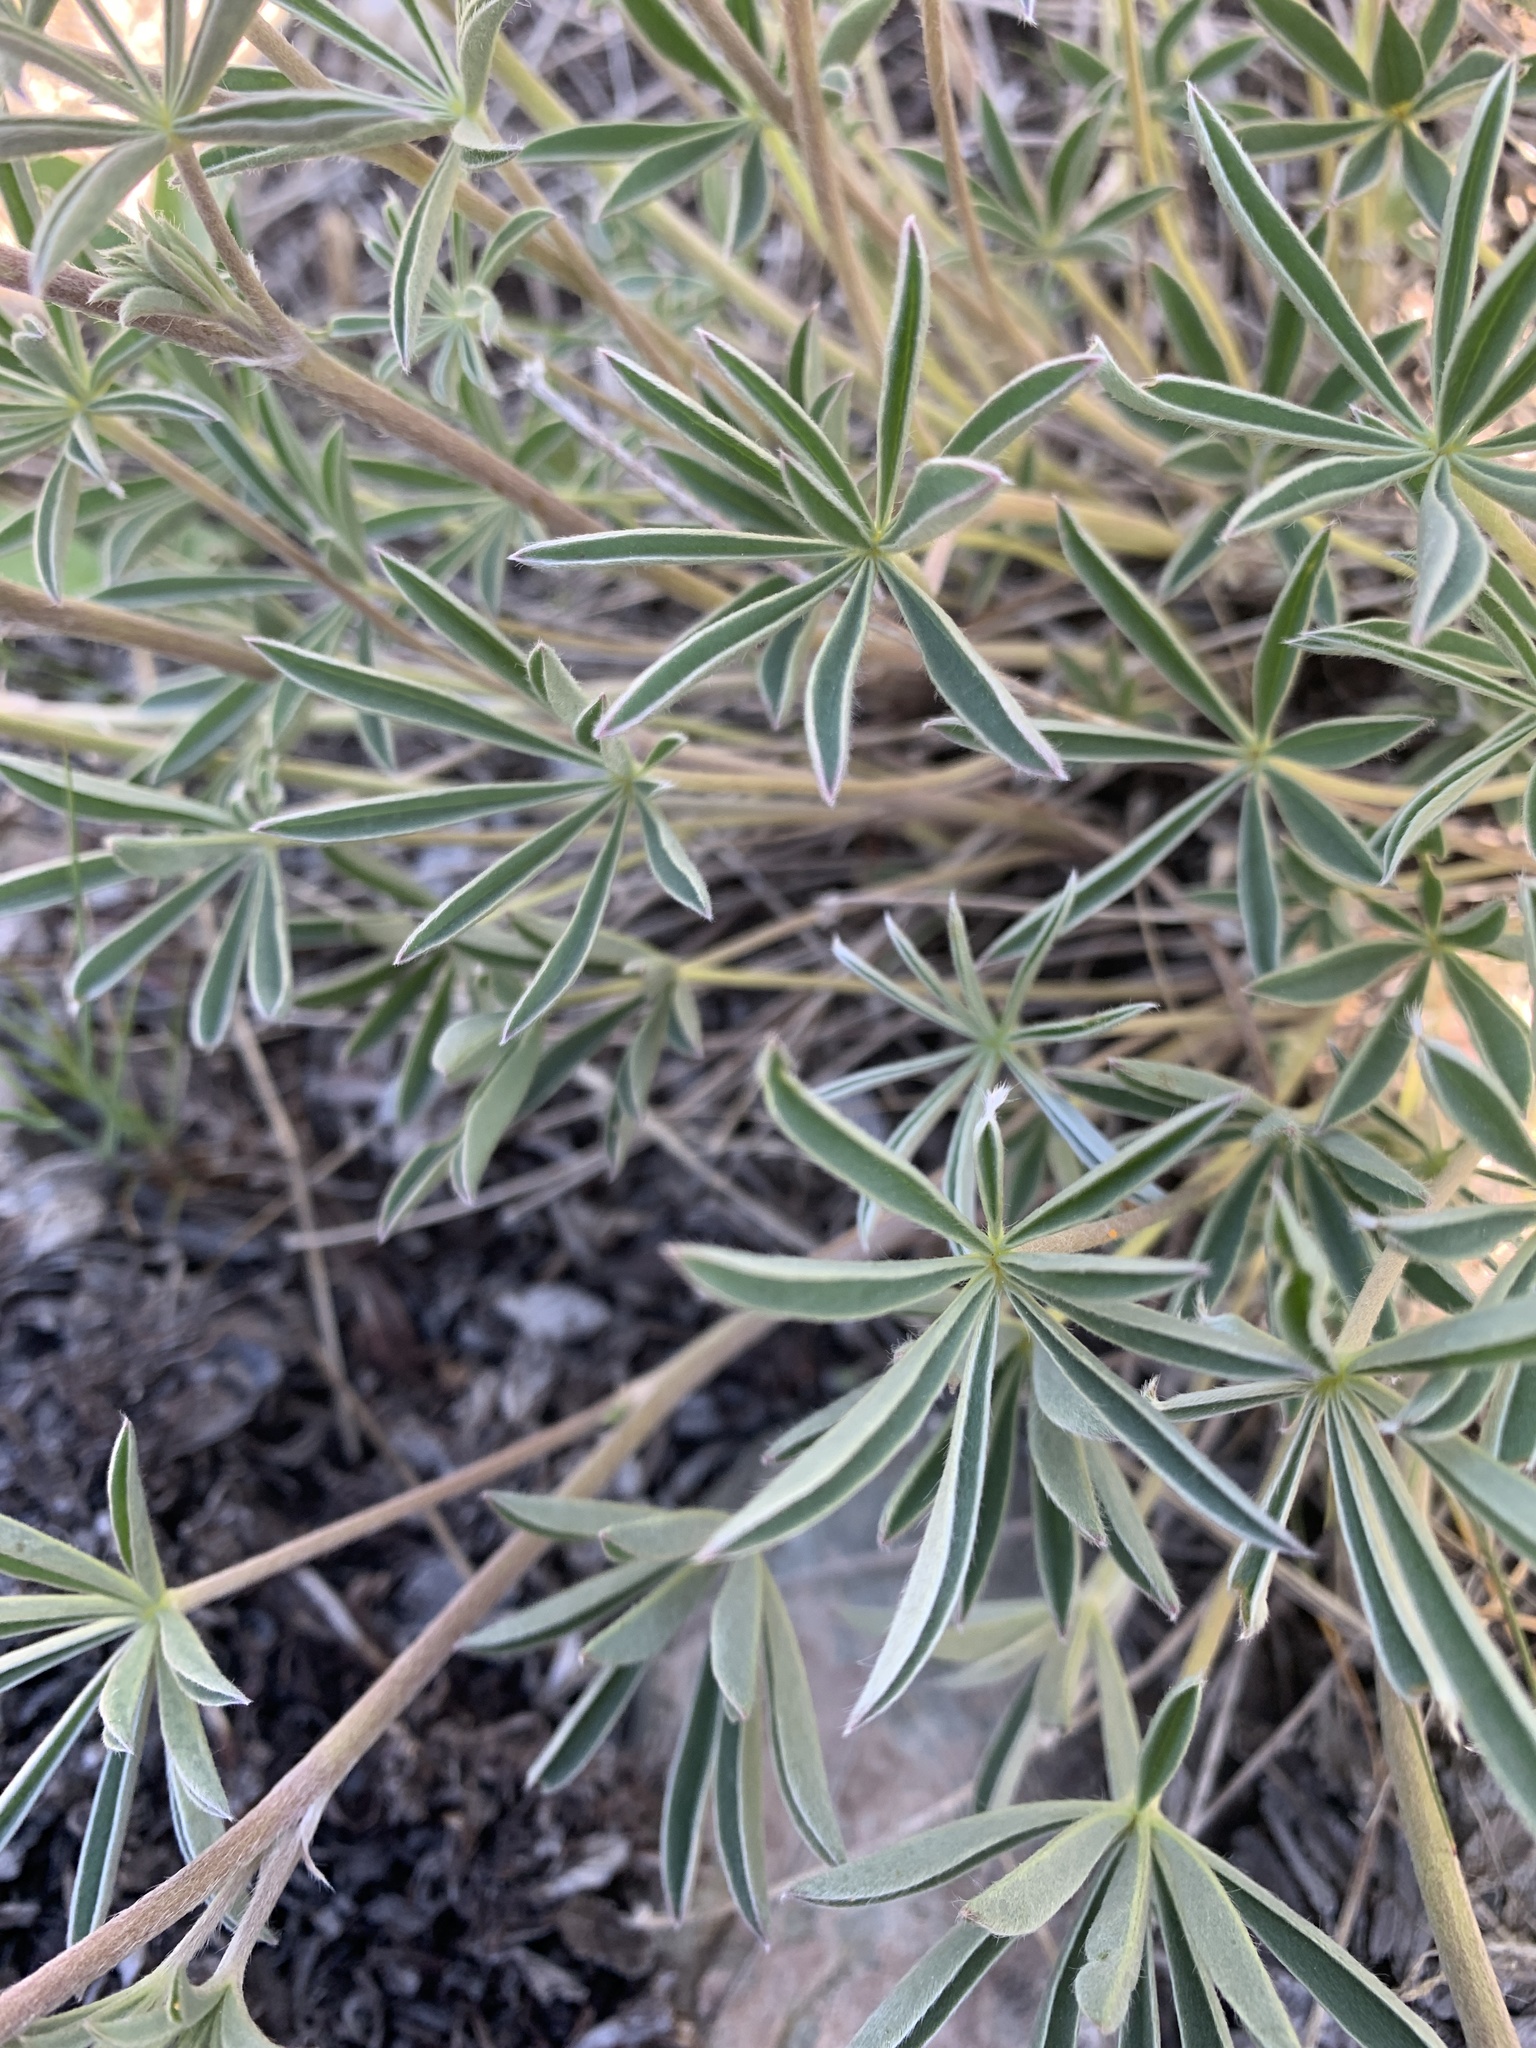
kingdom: Plantae
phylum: Tracheophyta
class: Magnoliopsida
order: Fabales
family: Fabaceae
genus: Lupinus
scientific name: Lupinus argenteus
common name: Silvery lupine
